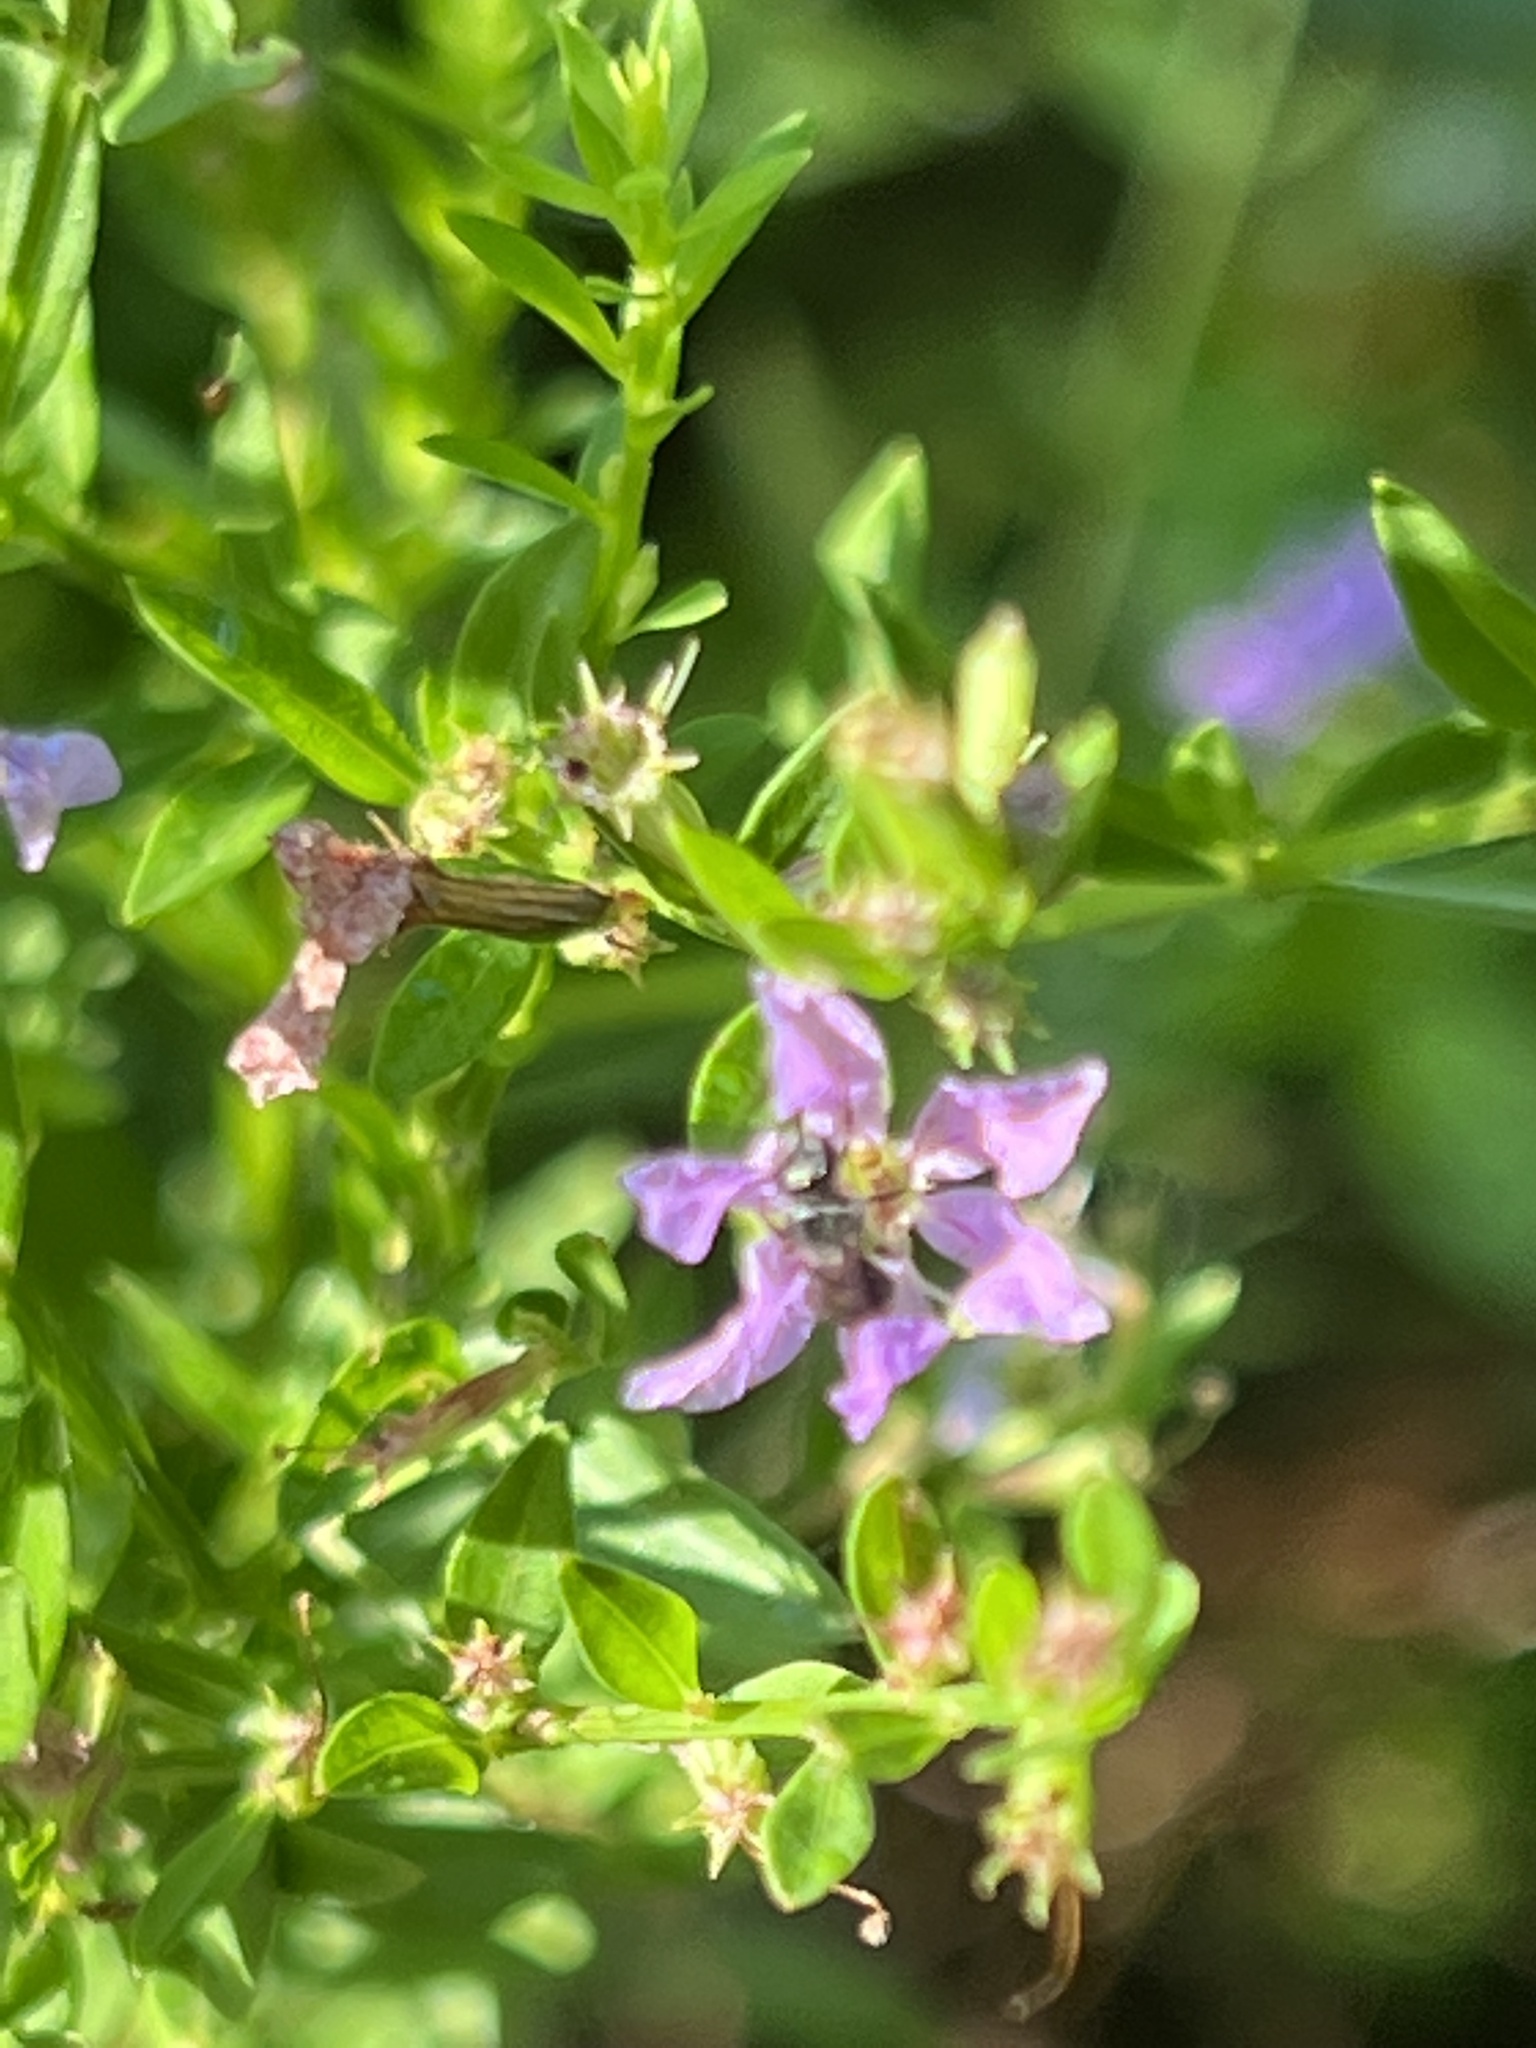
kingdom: Plantae
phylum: Tracheophyta
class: Magnoliopsida
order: Myrtales
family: Lythraceae
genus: Lythrum
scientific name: Lythrum alatum
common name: Winged loosestrife
